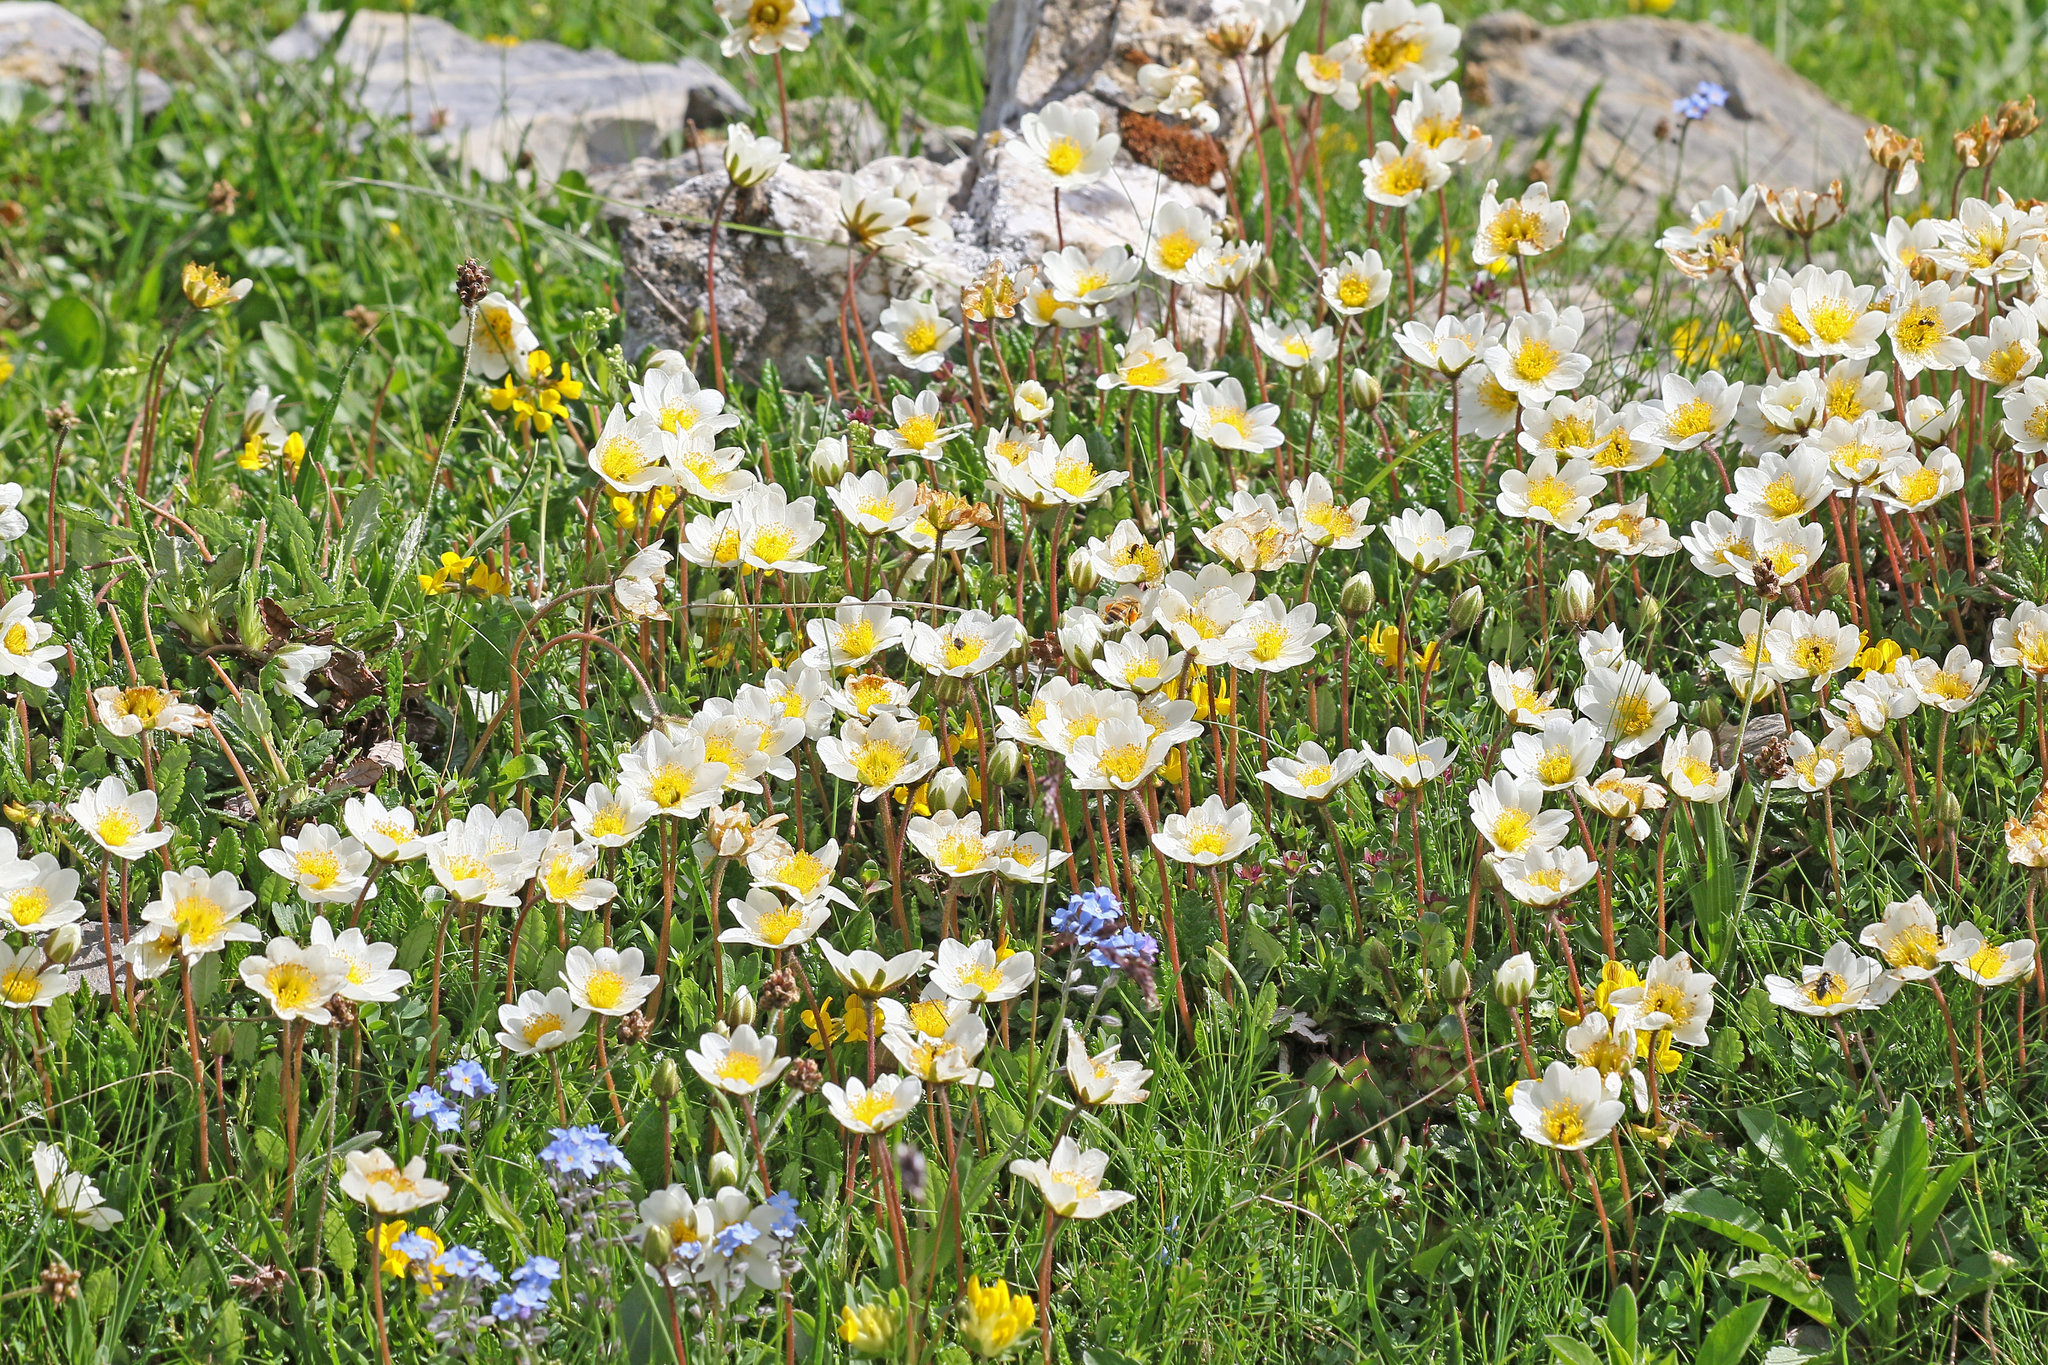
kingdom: Plantae
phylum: Tracheophyta
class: Magnoliopsida
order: Rosales
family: Rosaceae
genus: Dryas
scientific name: Dryas octopetala
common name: Eight-petal mountain-avens
